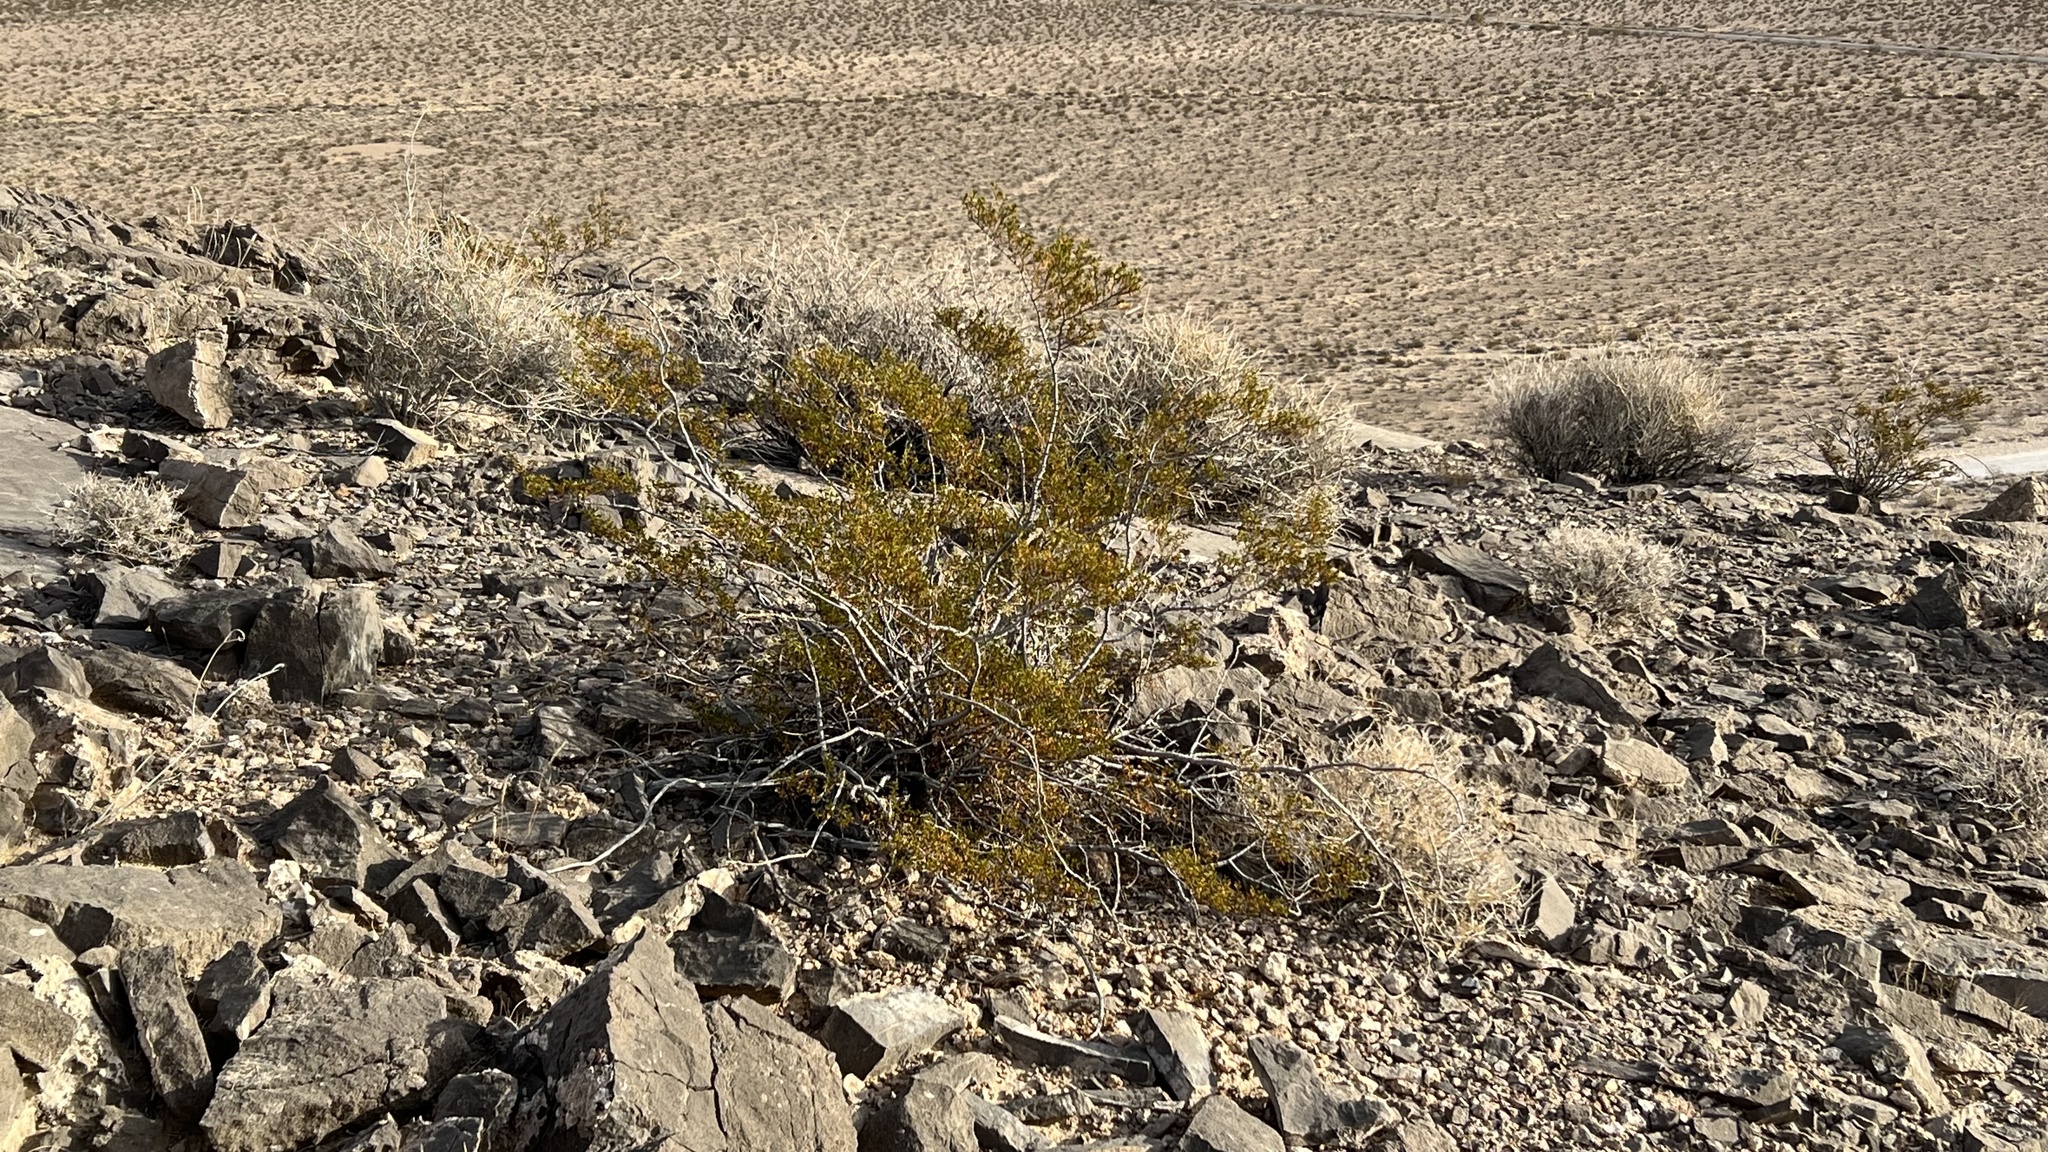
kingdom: Plantae
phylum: Tracheophyta
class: Magnoliopsida
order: Zygophyllales
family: Zygophyllaceae
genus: Larrea
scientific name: Larrea tridentata
